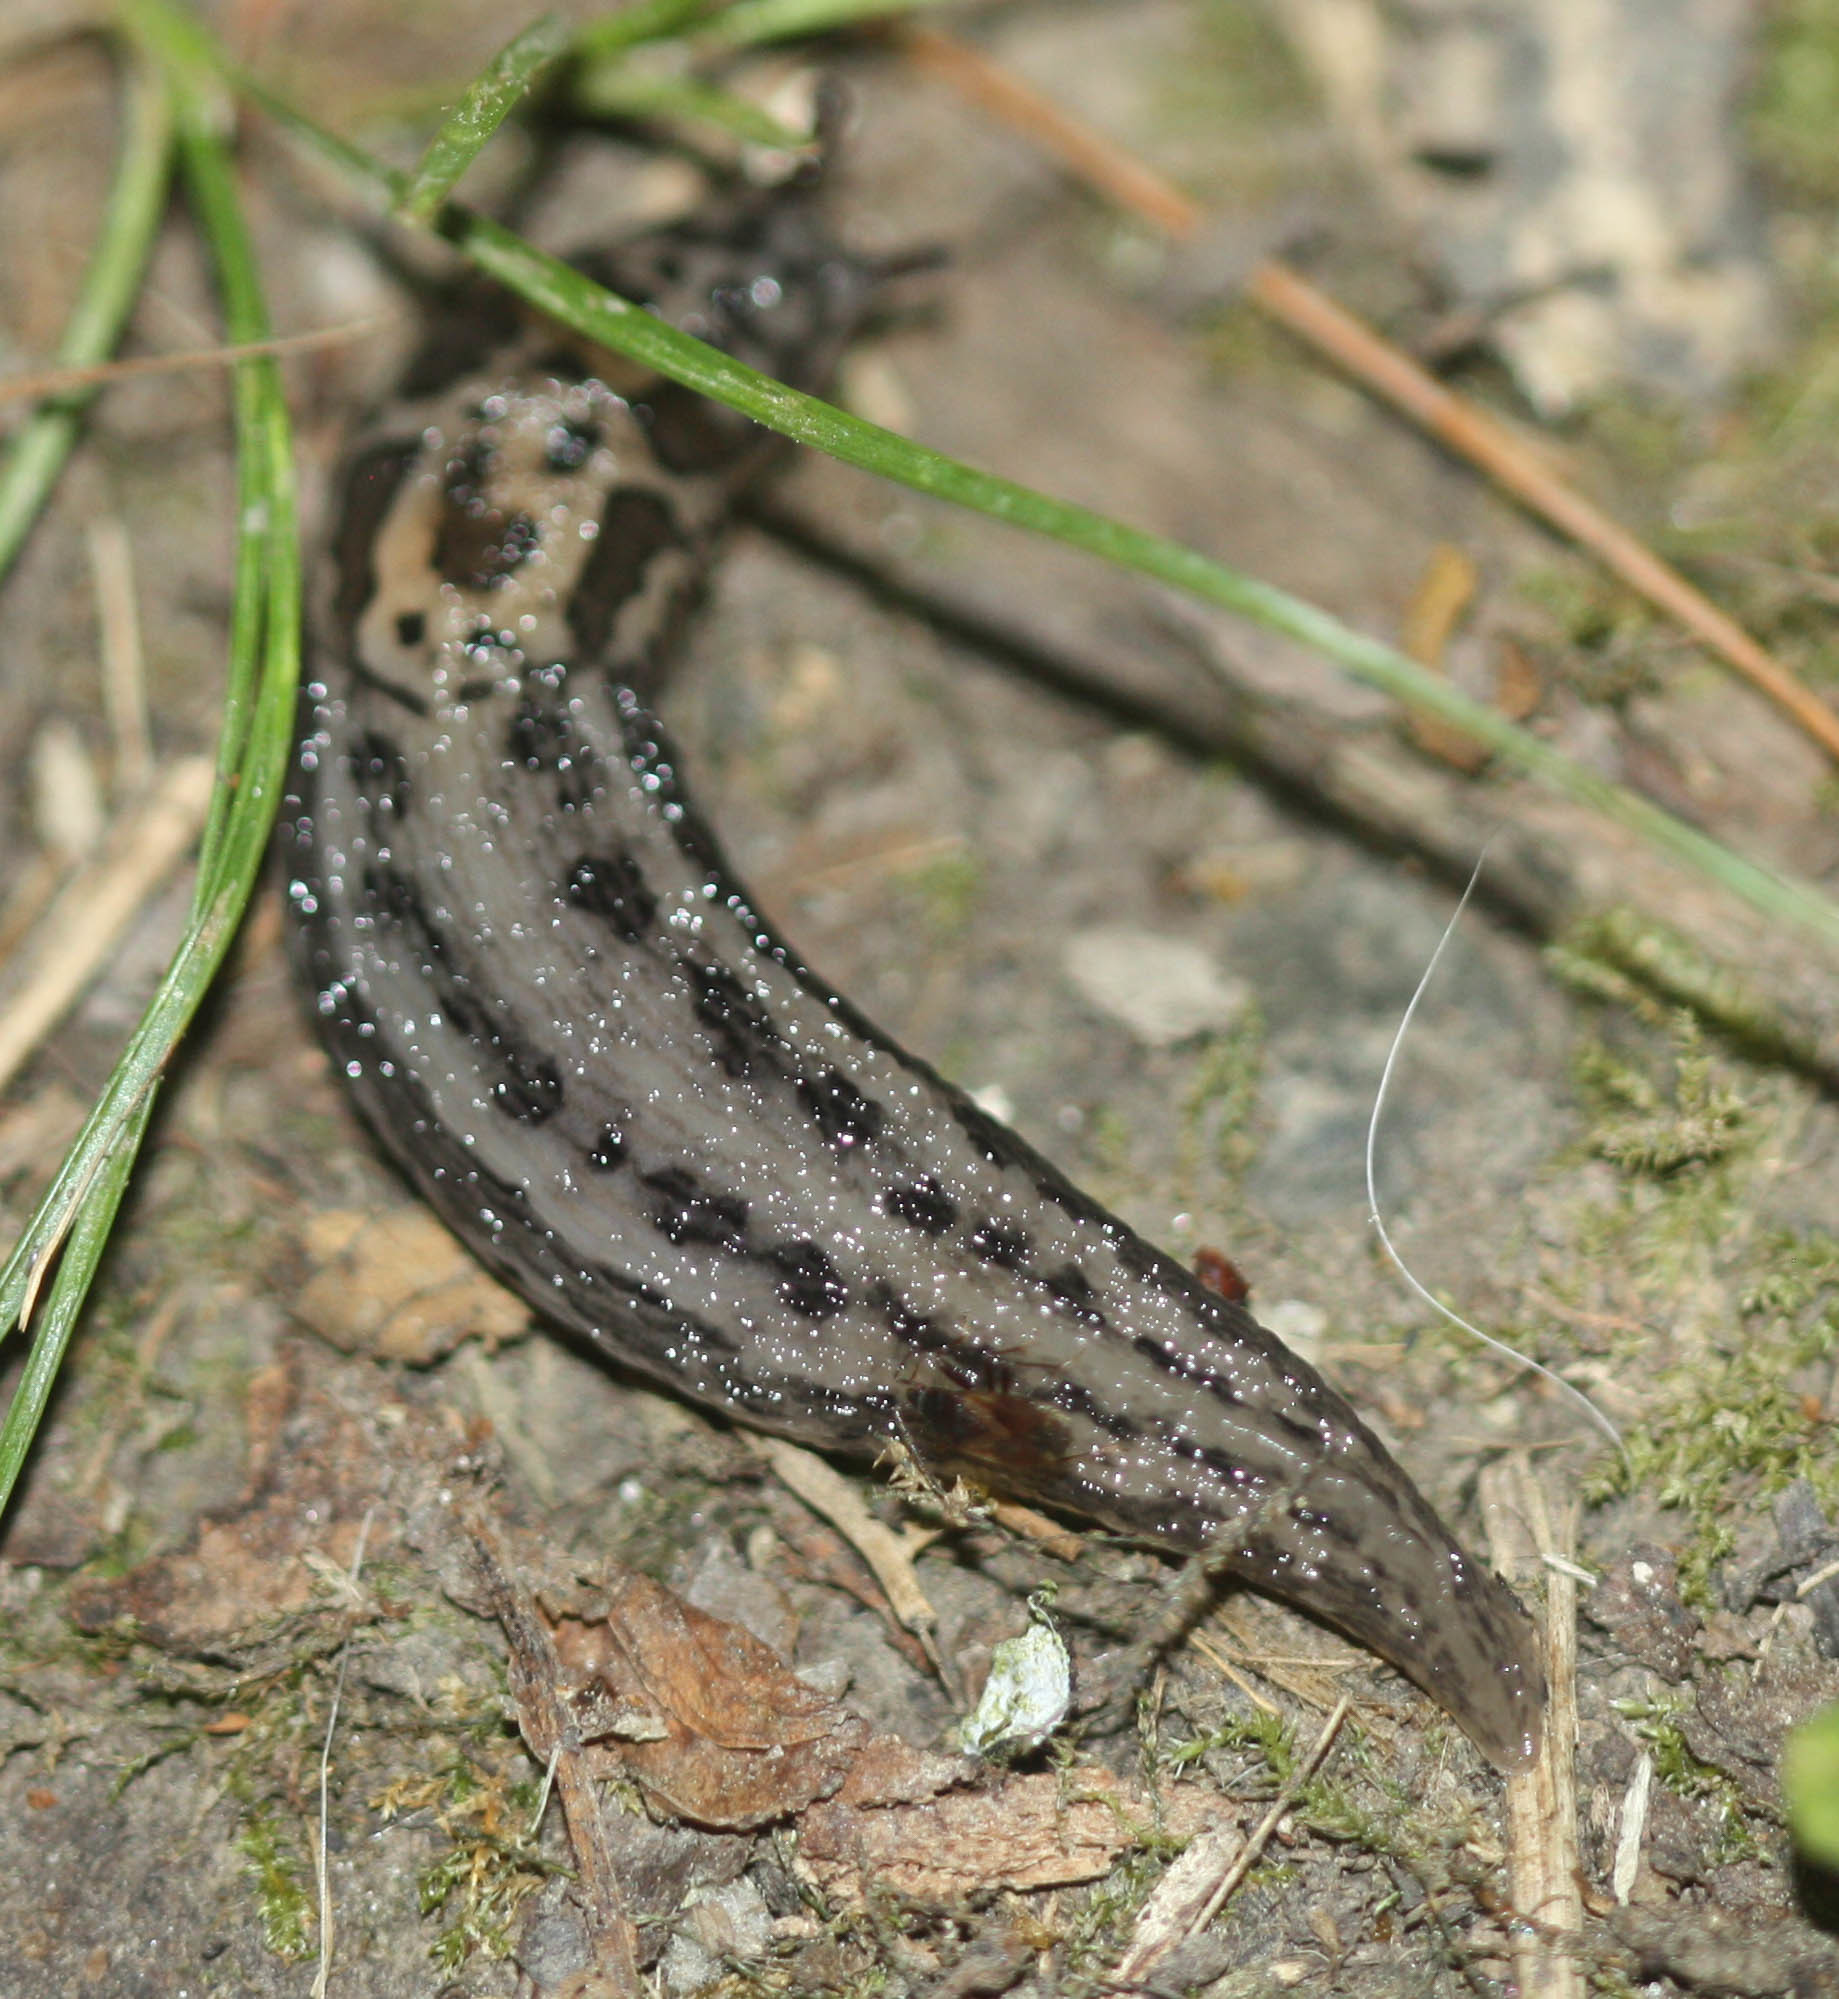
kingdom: Animalia
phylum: Mollusca
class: Gastropoda
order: Stylommatophora
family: Limacidae
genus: Limax
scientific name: Limax maximus
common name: Great grey slug
